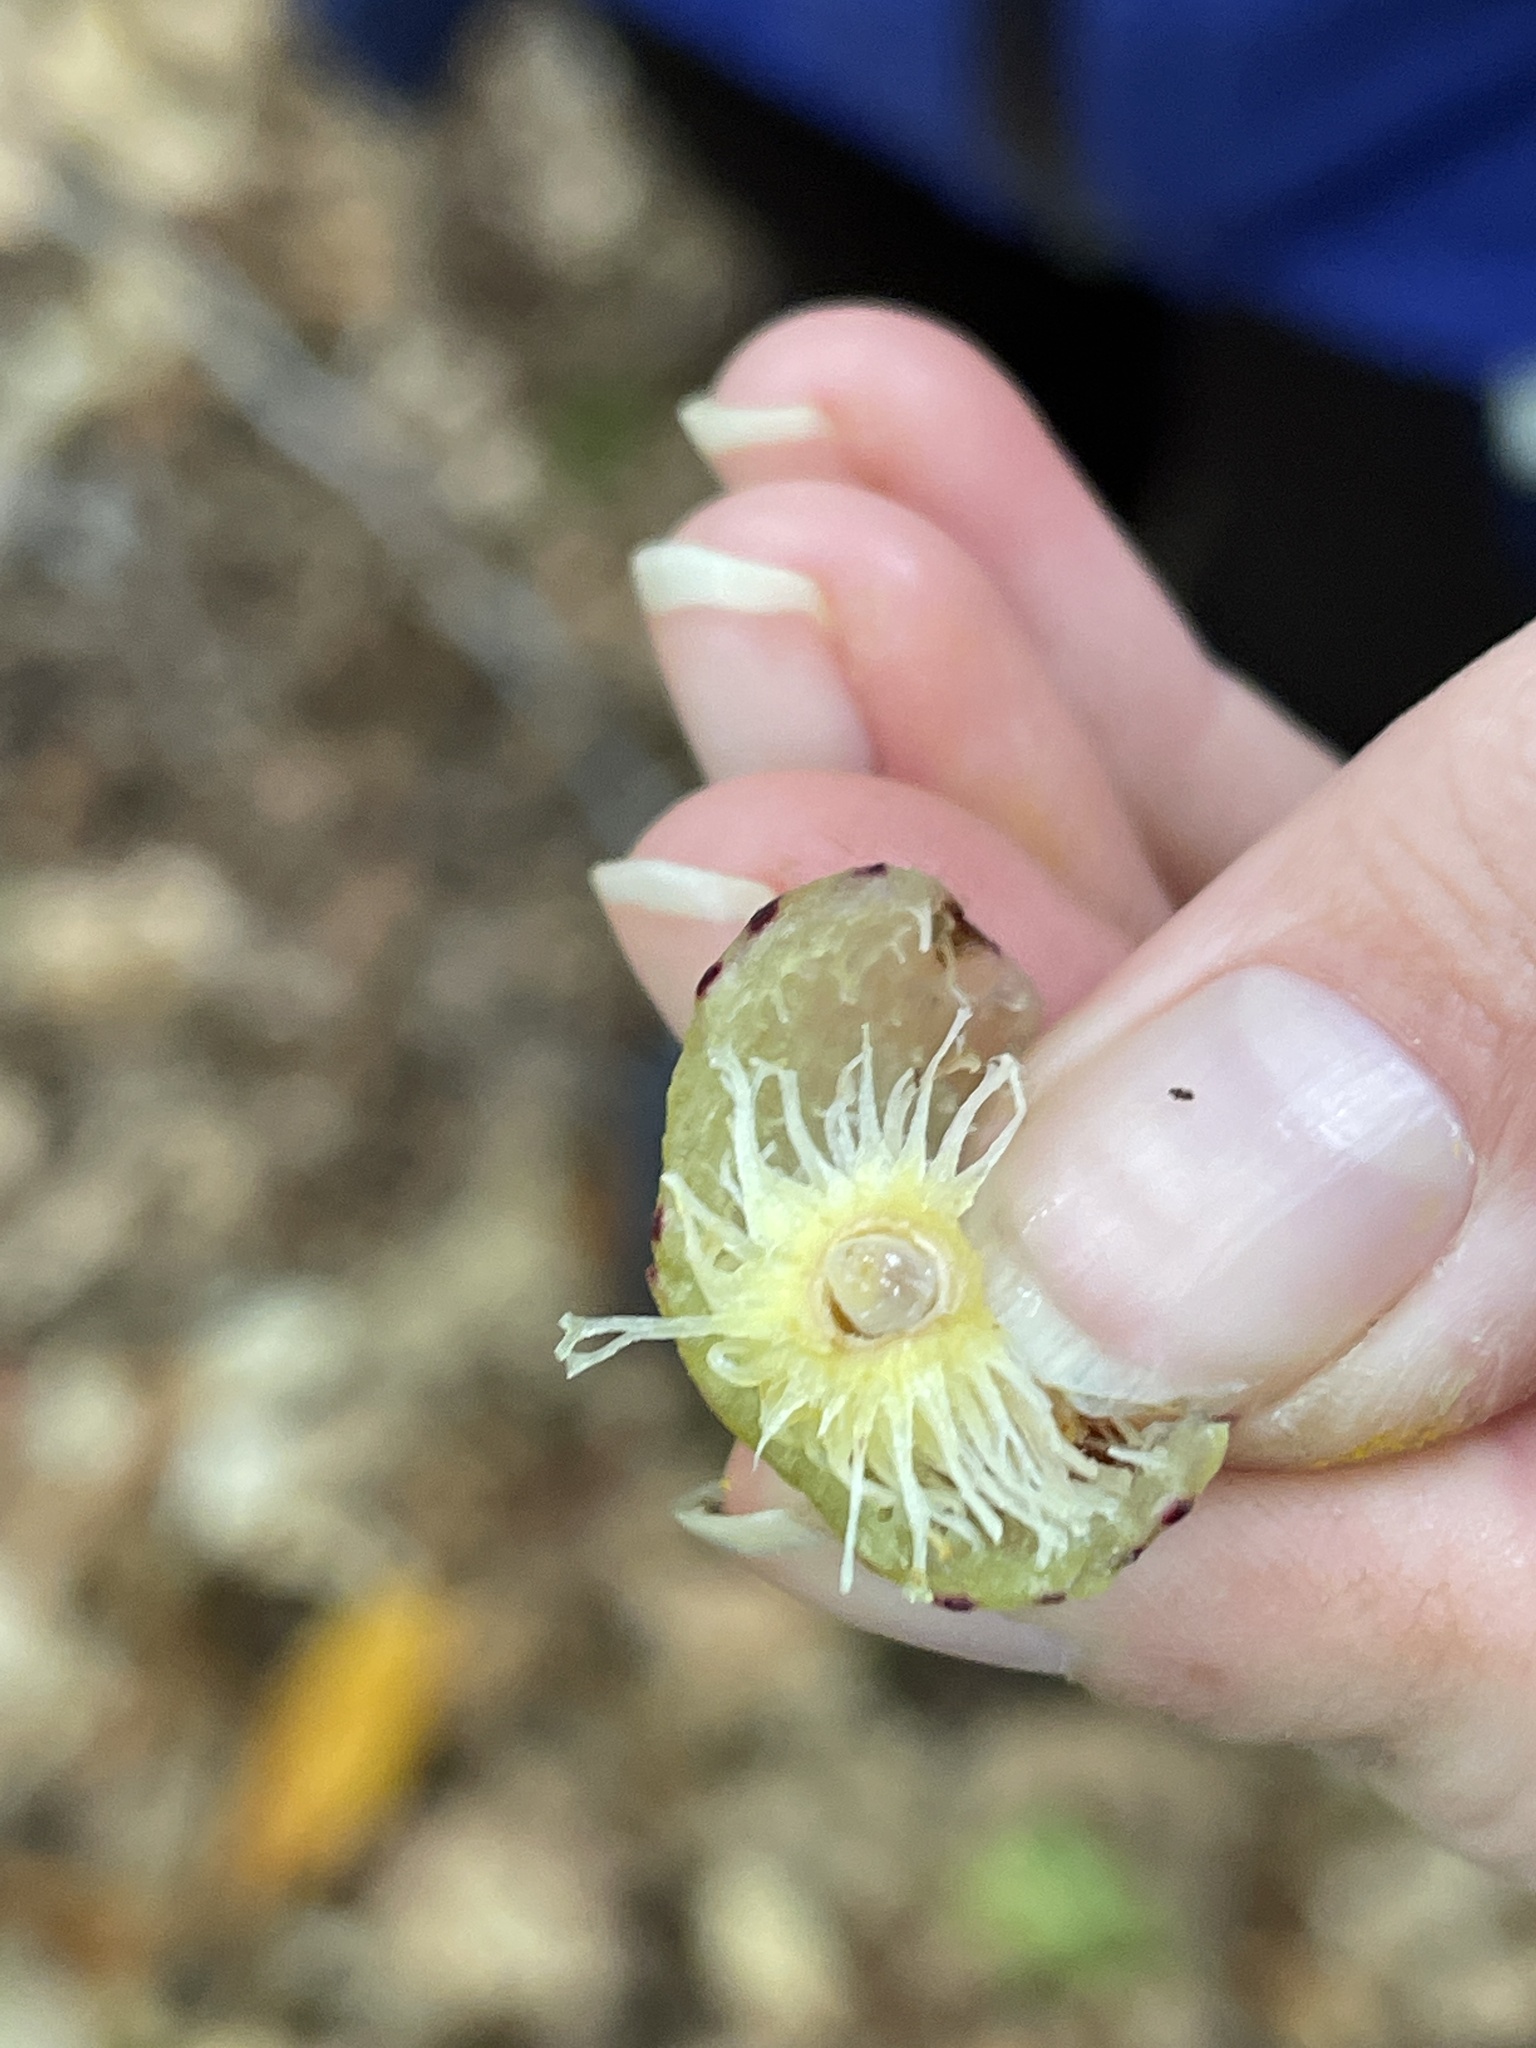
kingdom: Animalia
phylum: Arthropoda
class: Insecta
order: Hymenoptera
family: Cynipidae
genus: Amphibolips
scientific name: Amphibolips
